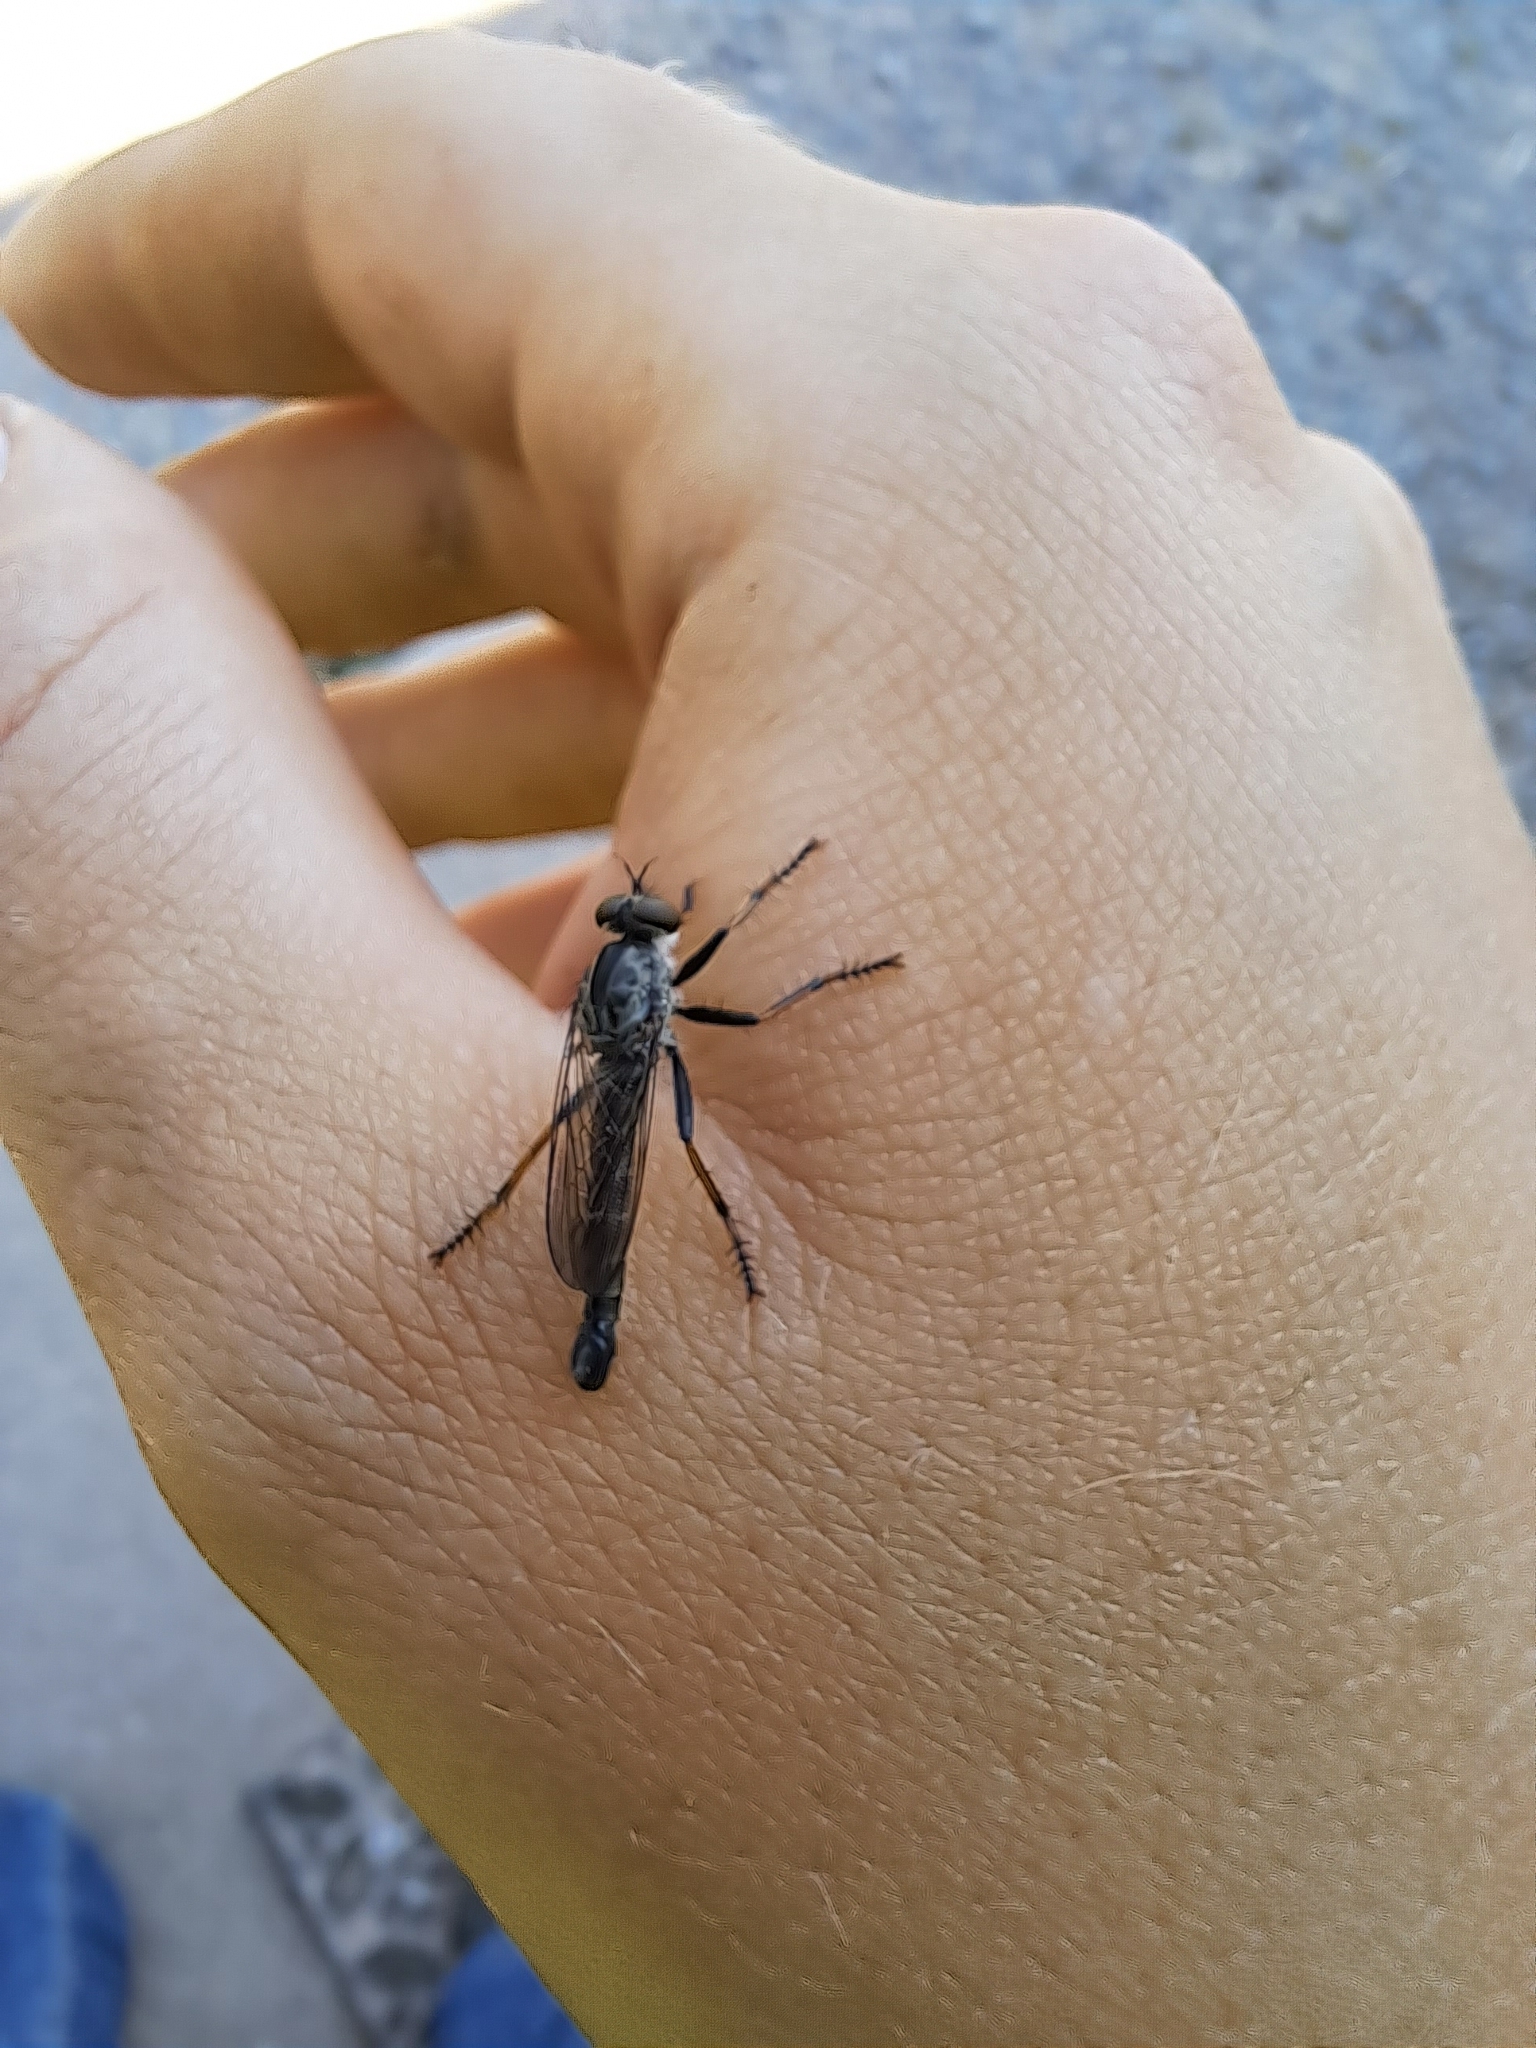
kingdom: Animalia
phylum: Arthropoda
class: Insecta
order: Diptera
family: Asilidae
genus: Machimus
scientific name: Machimus sadyates
